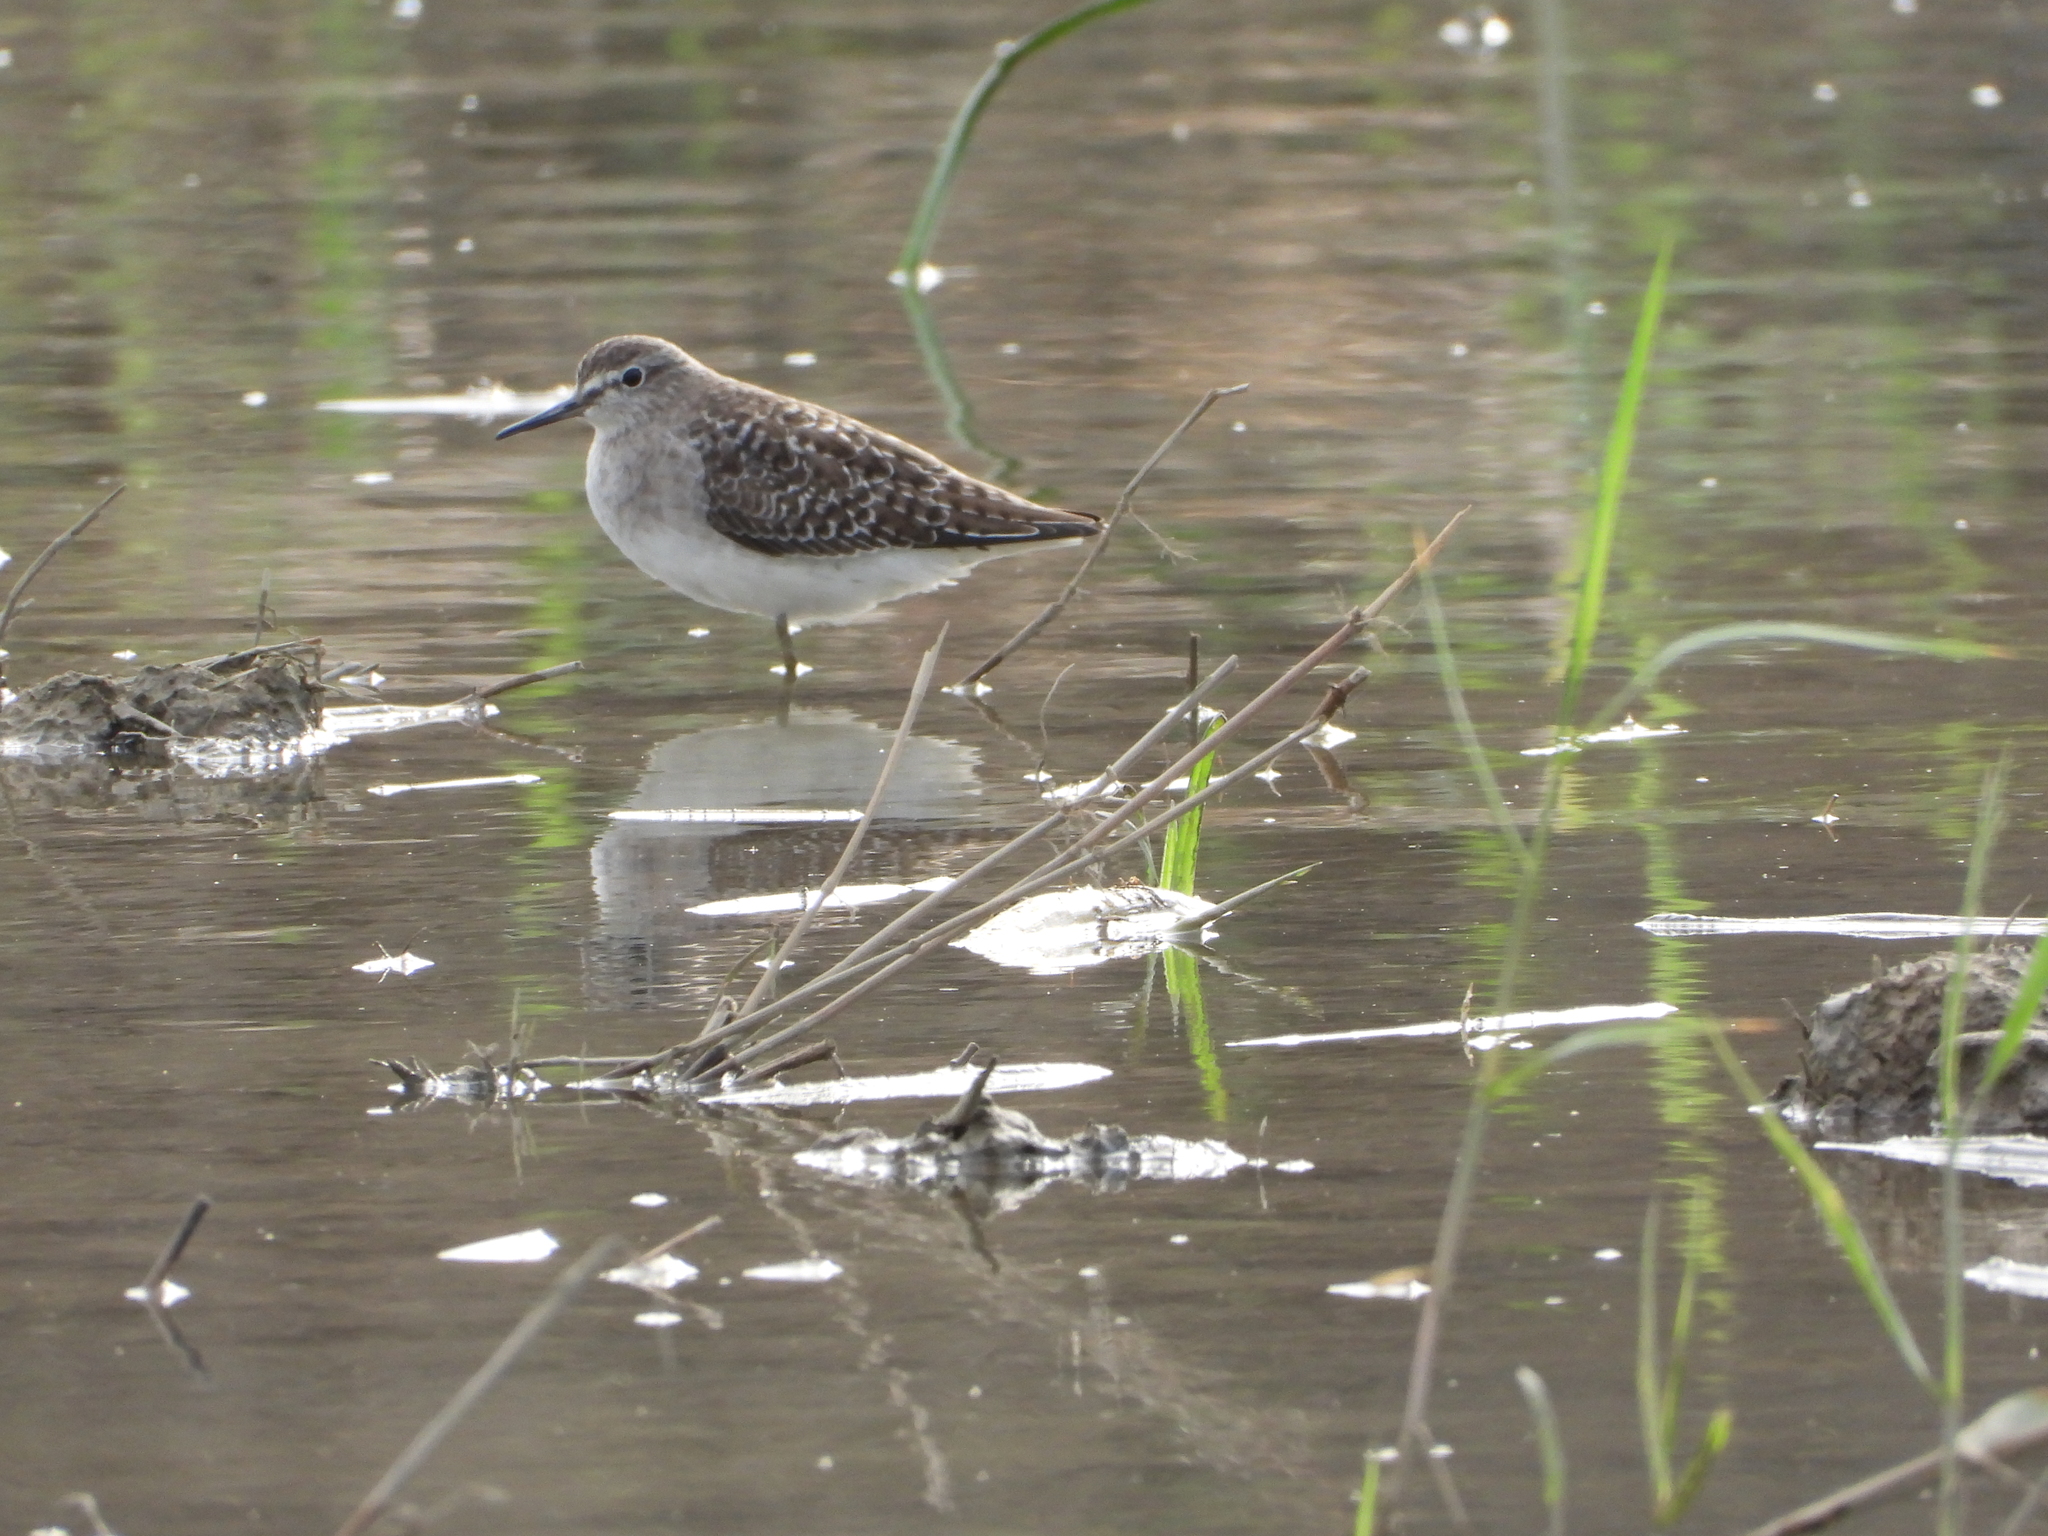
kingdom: Animalia
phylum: Chordata
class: Aves
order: Charadriiformes
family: Scolopacidae
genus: Tringa
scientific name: Tringa glareola
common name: Wood sandpiper
